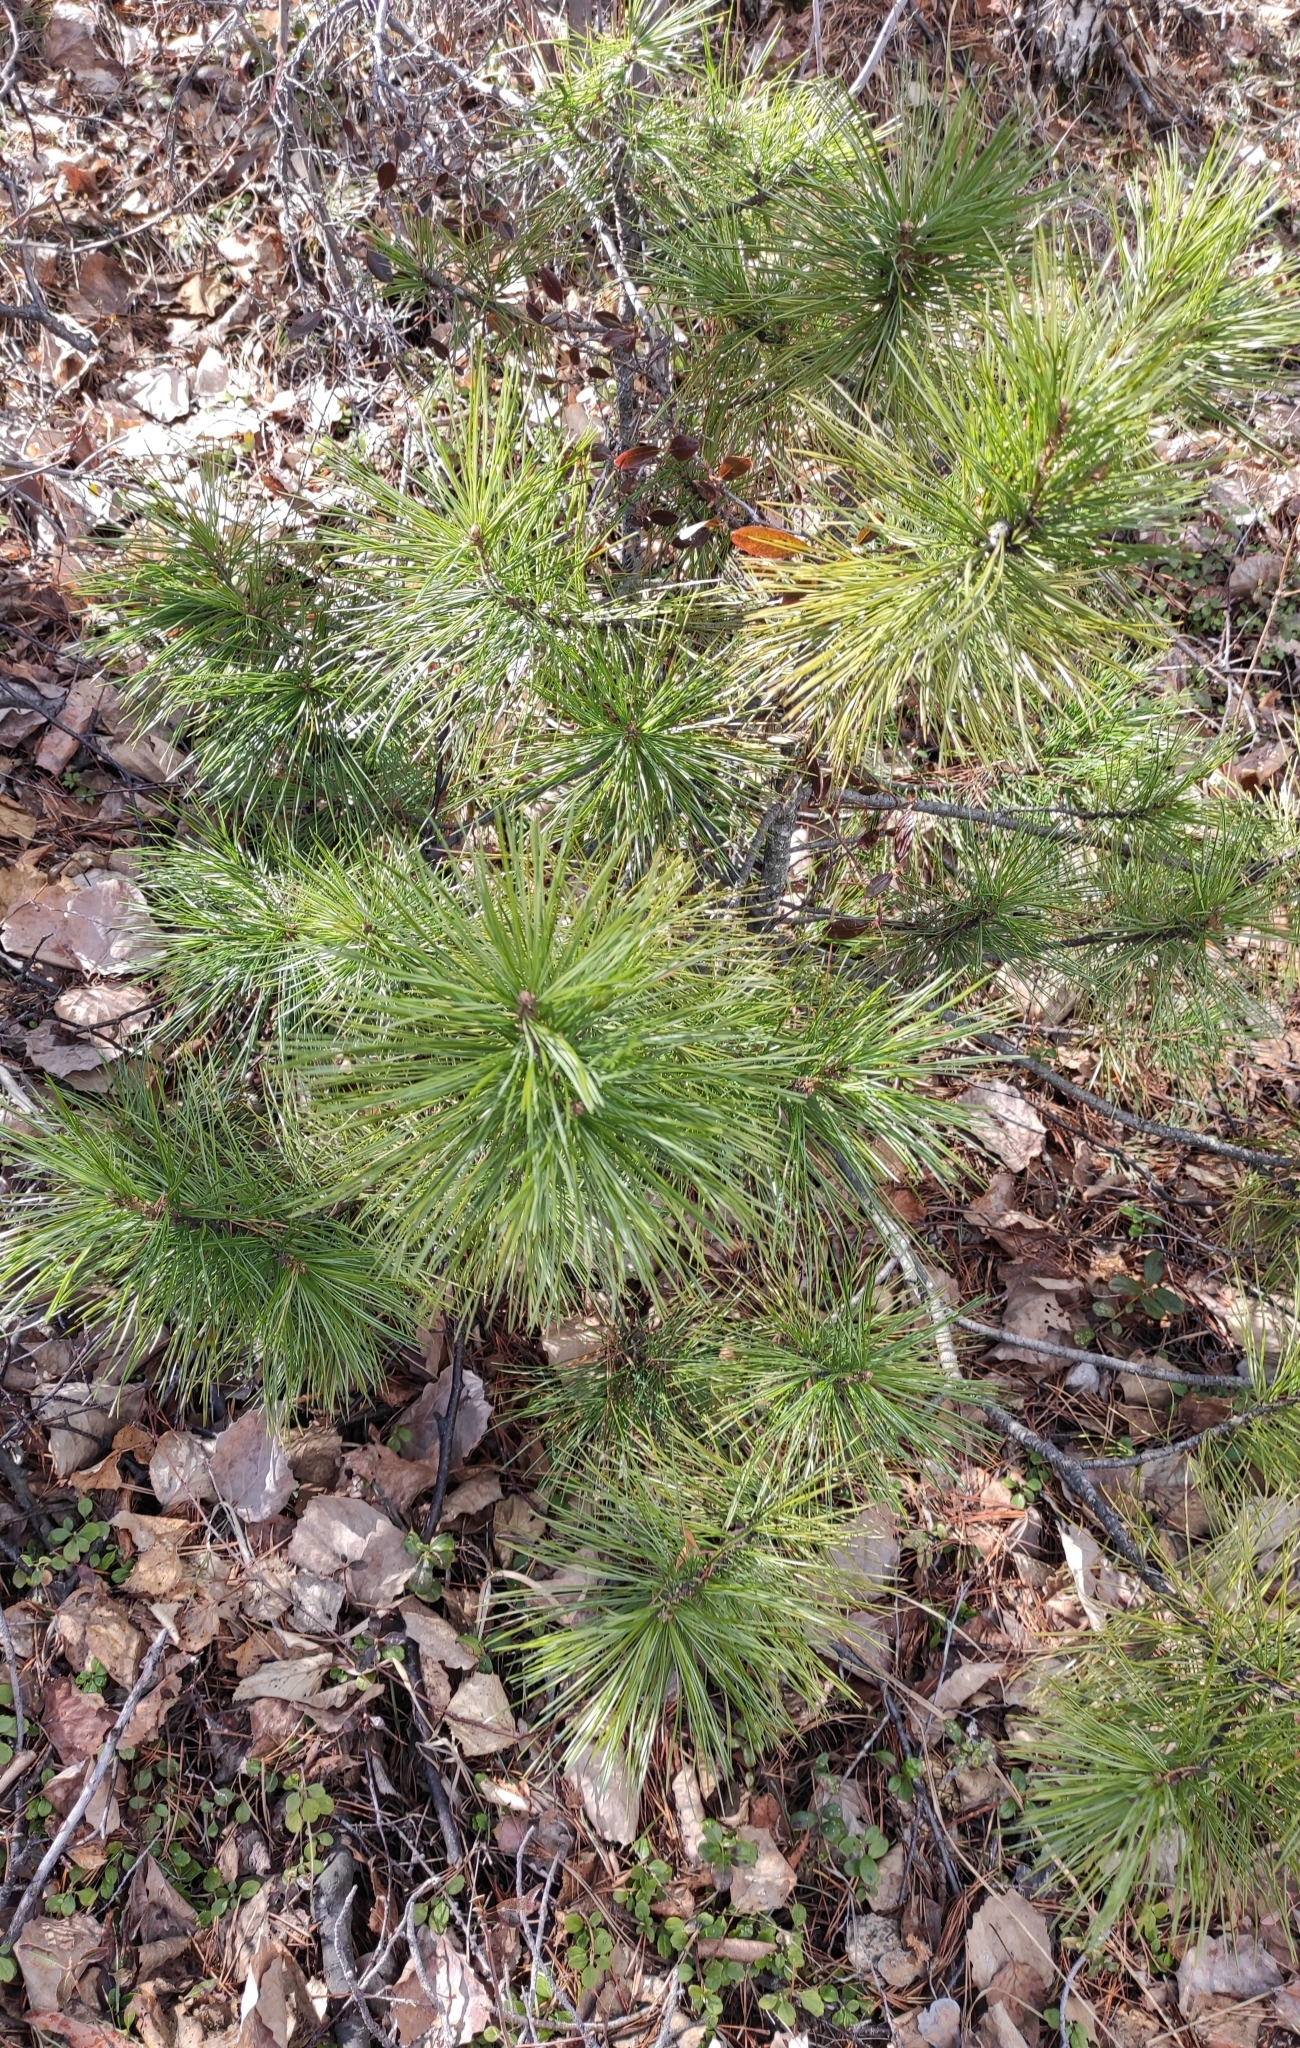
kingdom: Plantae
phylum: Tracheophyta
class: Pinopsida
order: Pinales
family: Pinaceae
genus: Pinus
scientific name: Pinus sibirica
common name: Siberian pine
